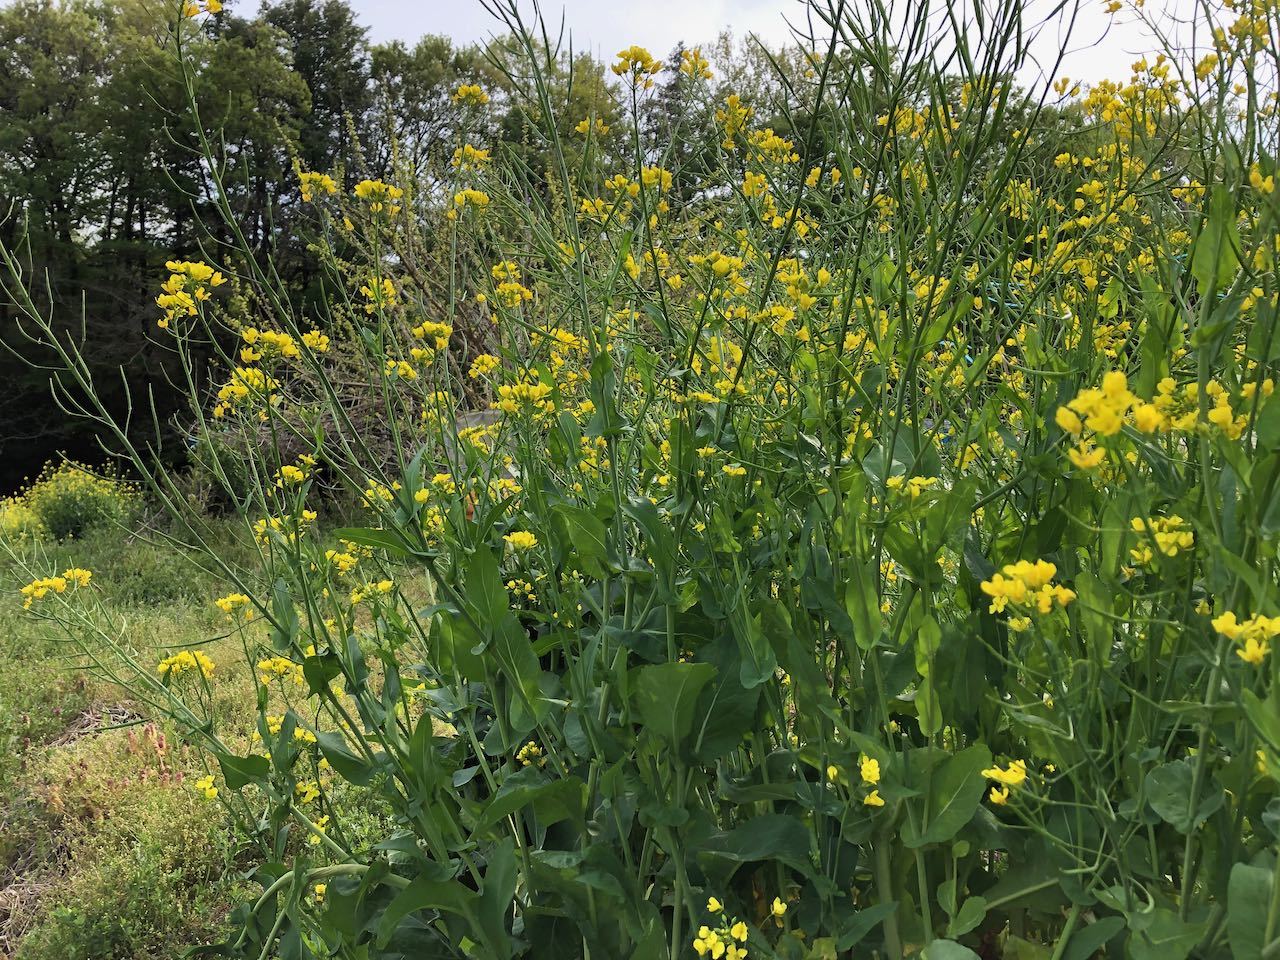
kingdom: Plantae
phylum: Tracheophyta
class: Magnoliopsida
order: Brassicales
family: Brassicaceae
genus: Brassica
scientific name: Brassica napus
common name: Rape
